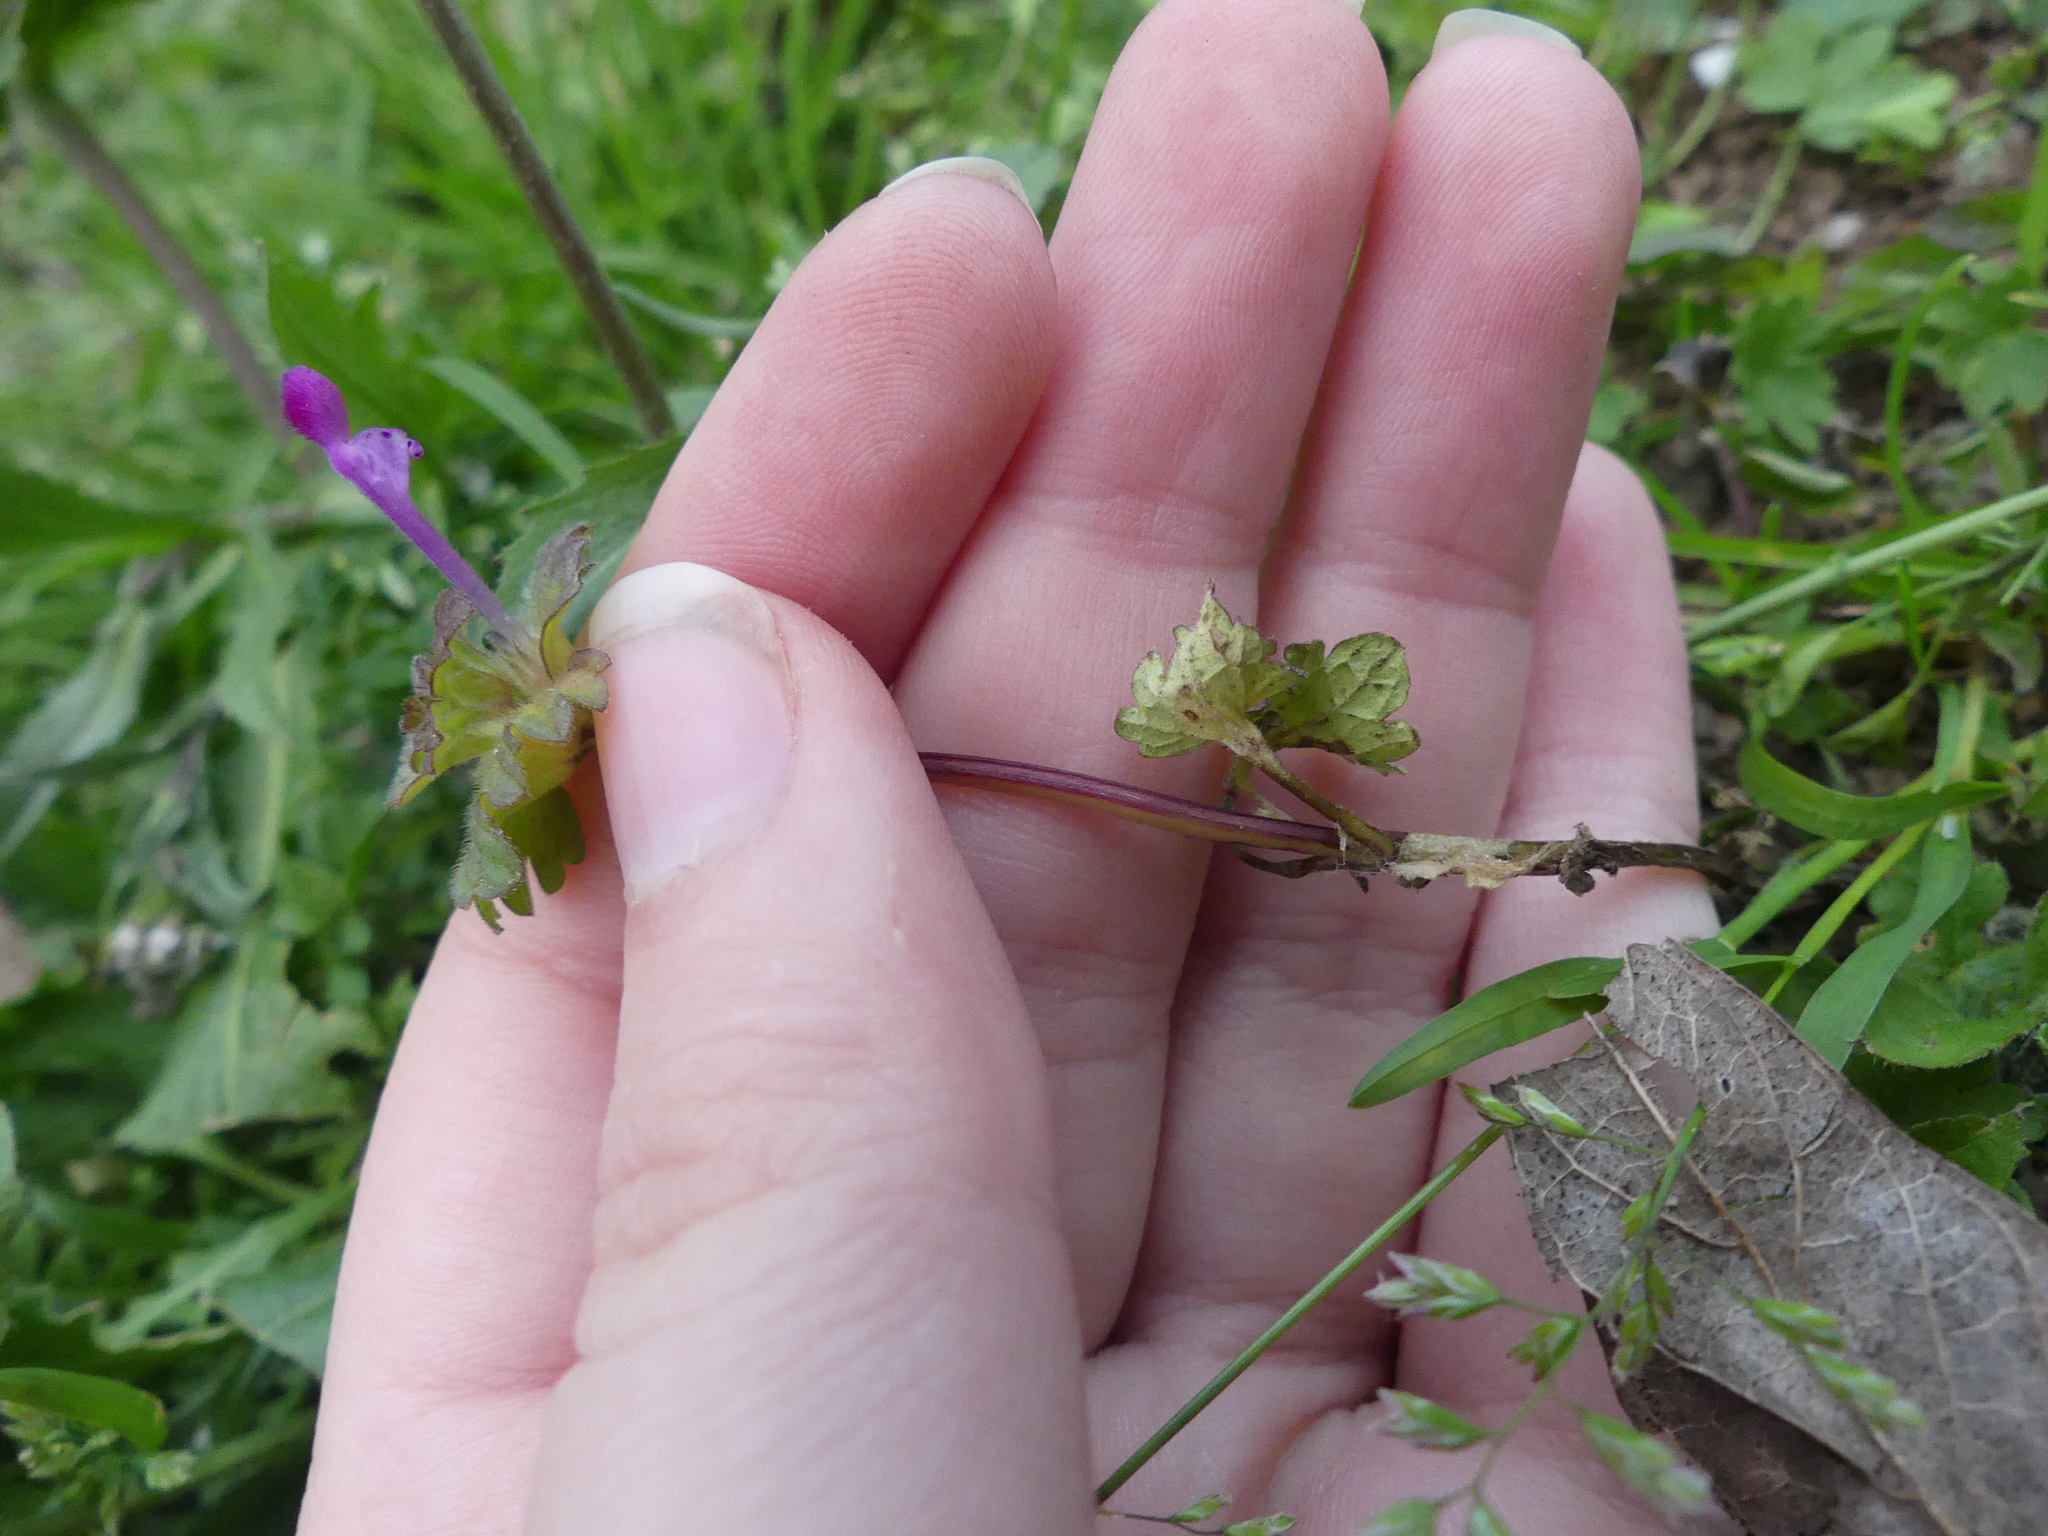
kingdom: Plantae
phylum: Tracheophyta
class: Magnoliopsida
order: Lamiales
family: Lamiaceae
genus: Lamium
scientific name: Lamium amplexicaule
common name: Henbit dead-nettle
